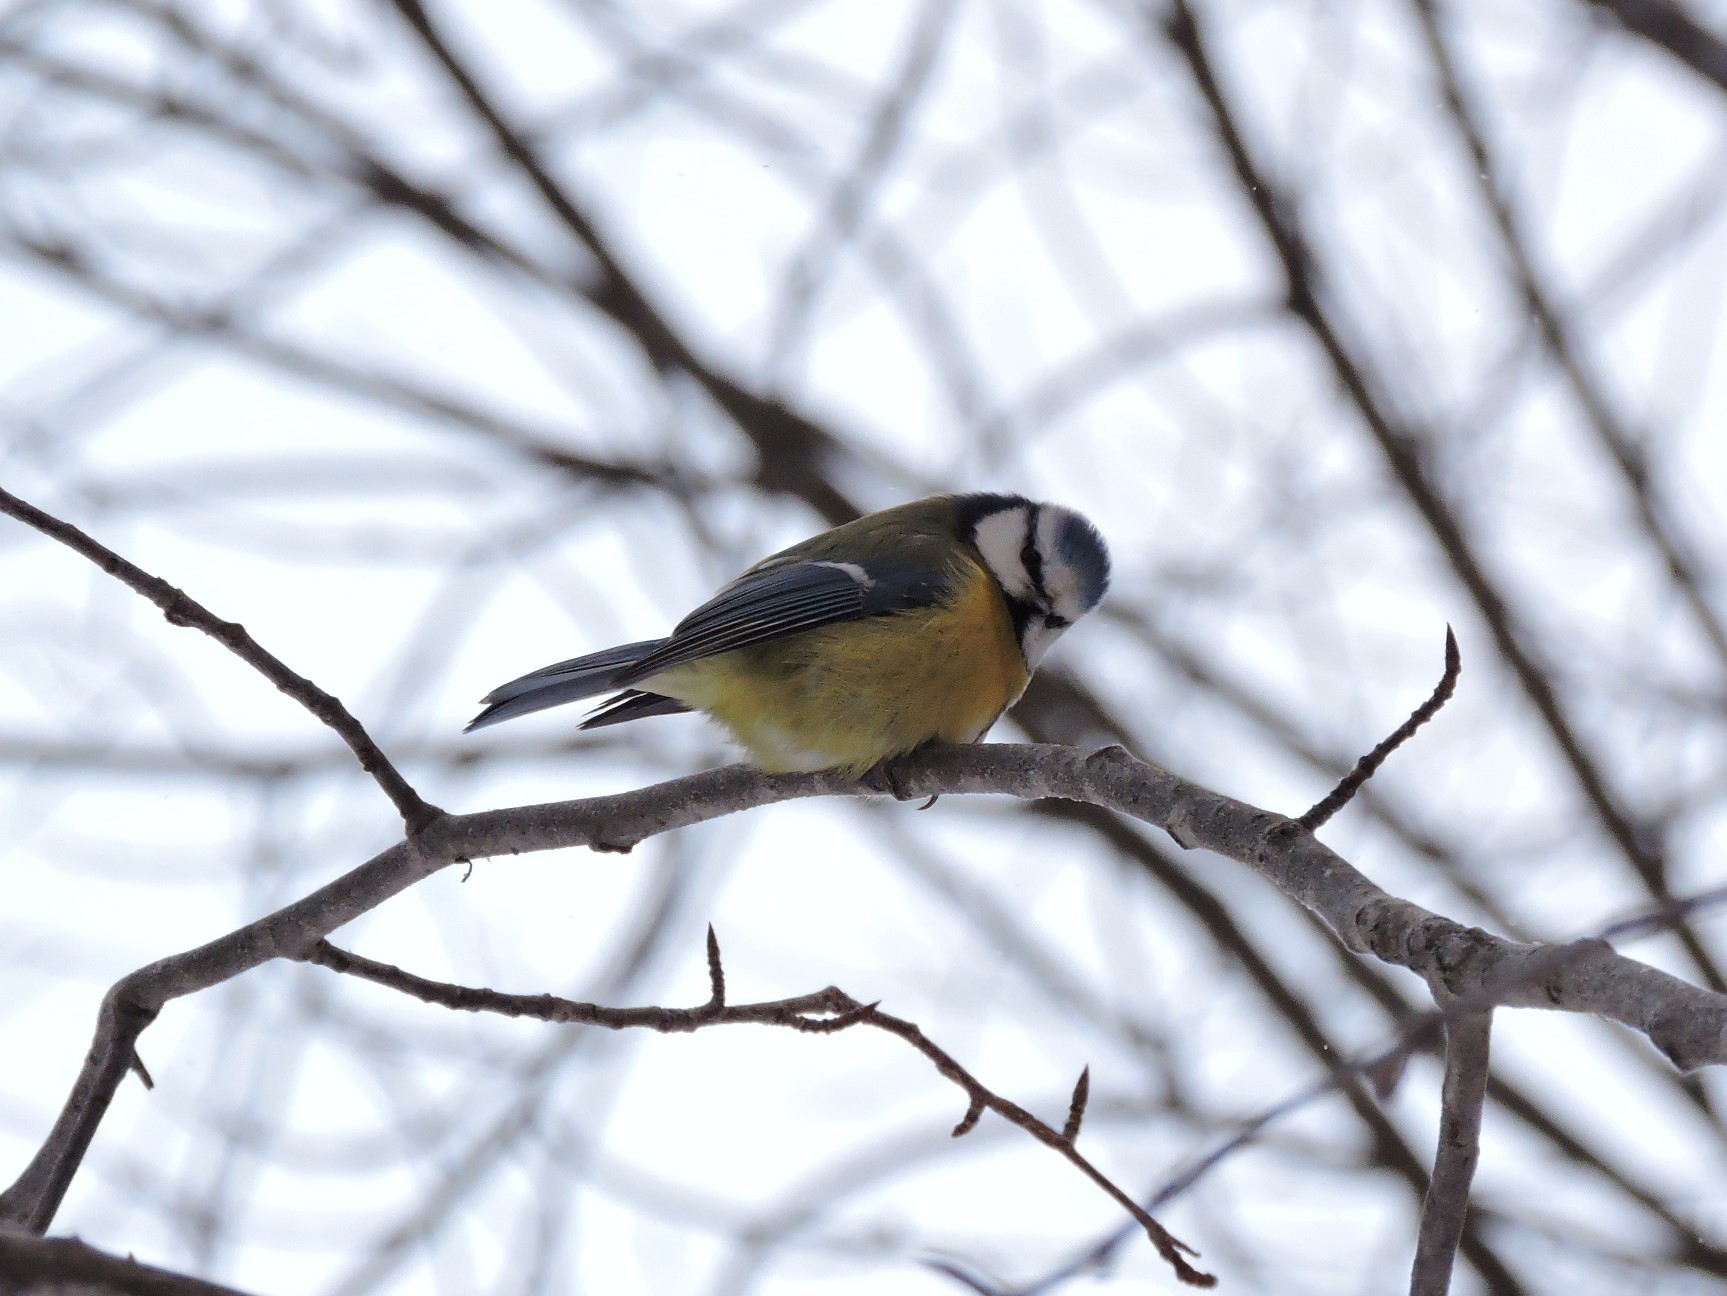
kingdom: Animalia
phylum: Chordata
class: Aves
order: Passeriformes
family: Paridae
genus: Cyanistes
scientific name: Cyanistes caeruleus
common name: Eurasian blue tit
